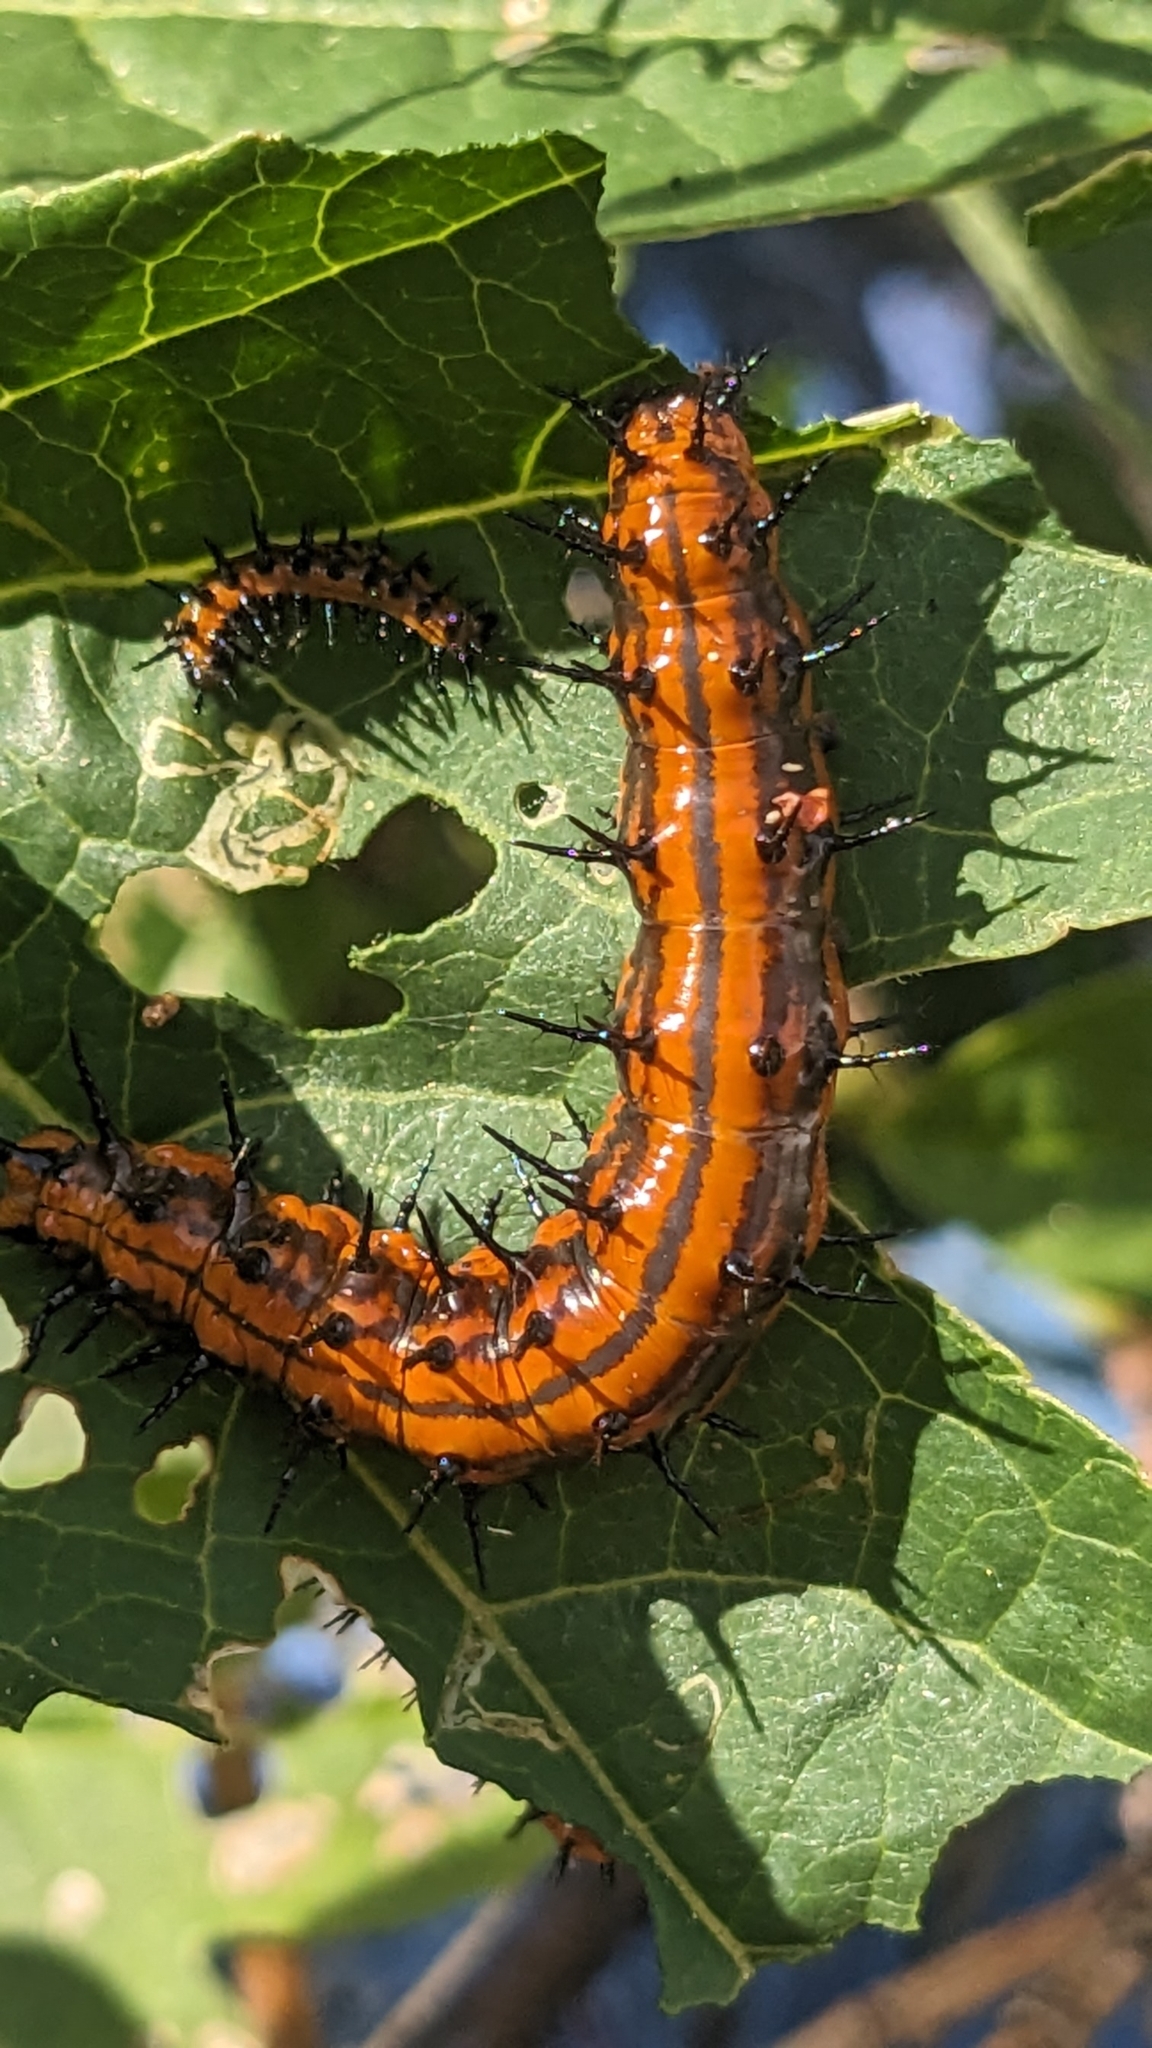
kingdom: Animalia
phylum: Arthropoda
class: Insecta
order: Lepidoptera
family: Nymphalidae
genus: Dione
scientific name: Dione vanillae
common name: Gulf fritillary
